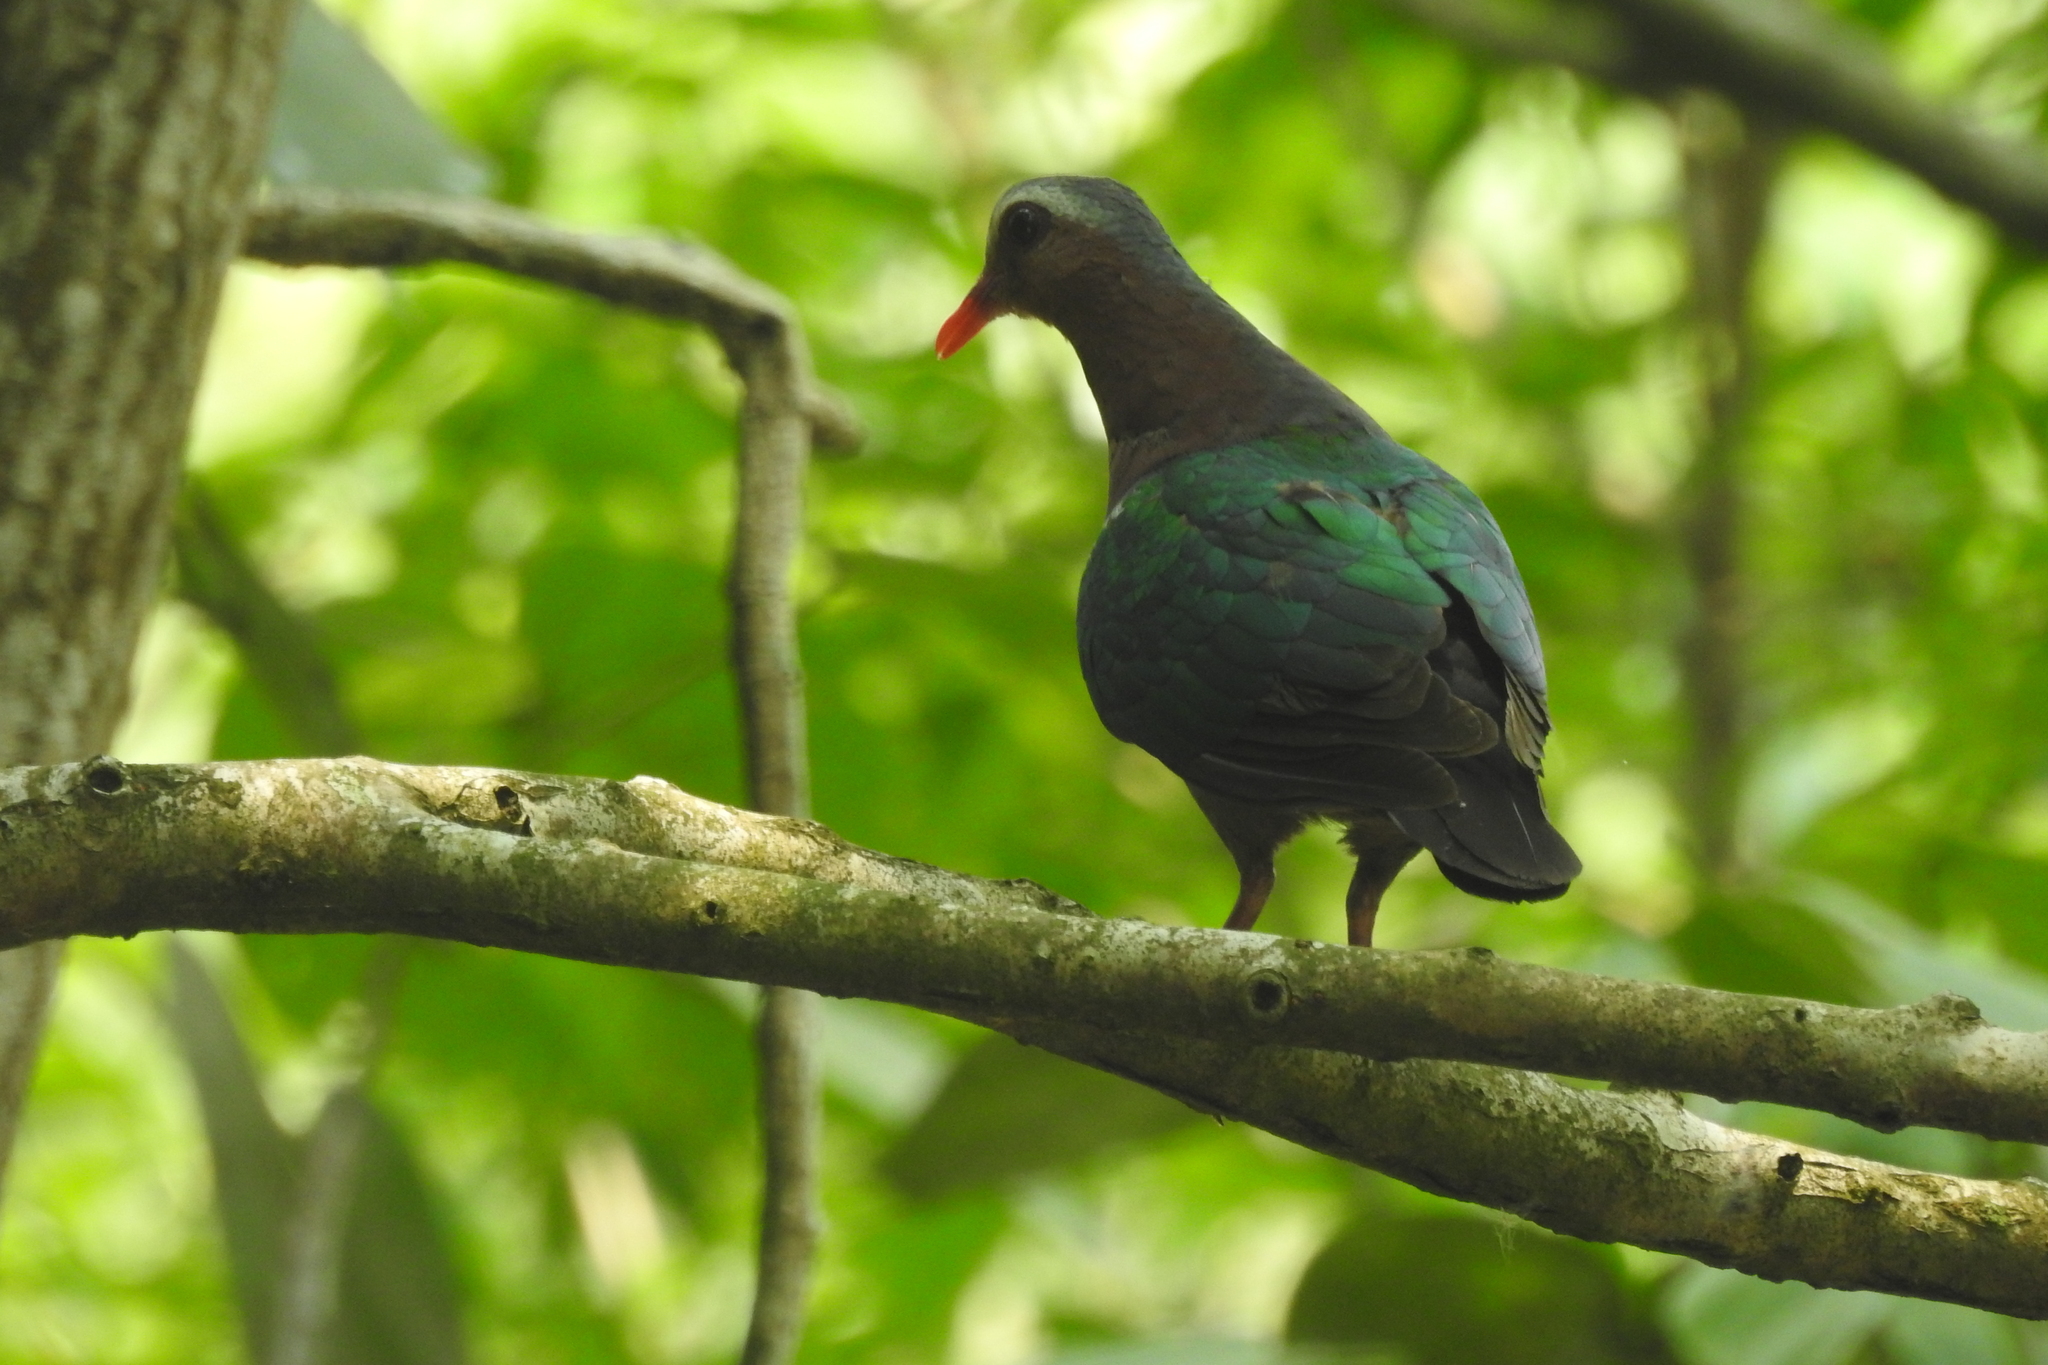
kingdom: Animalia
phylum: Chordata
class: Aves
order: Columbiformes
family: Columbidae
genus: Chalcophaps
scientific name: Chalcophaps indica
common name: Common emerald dove
